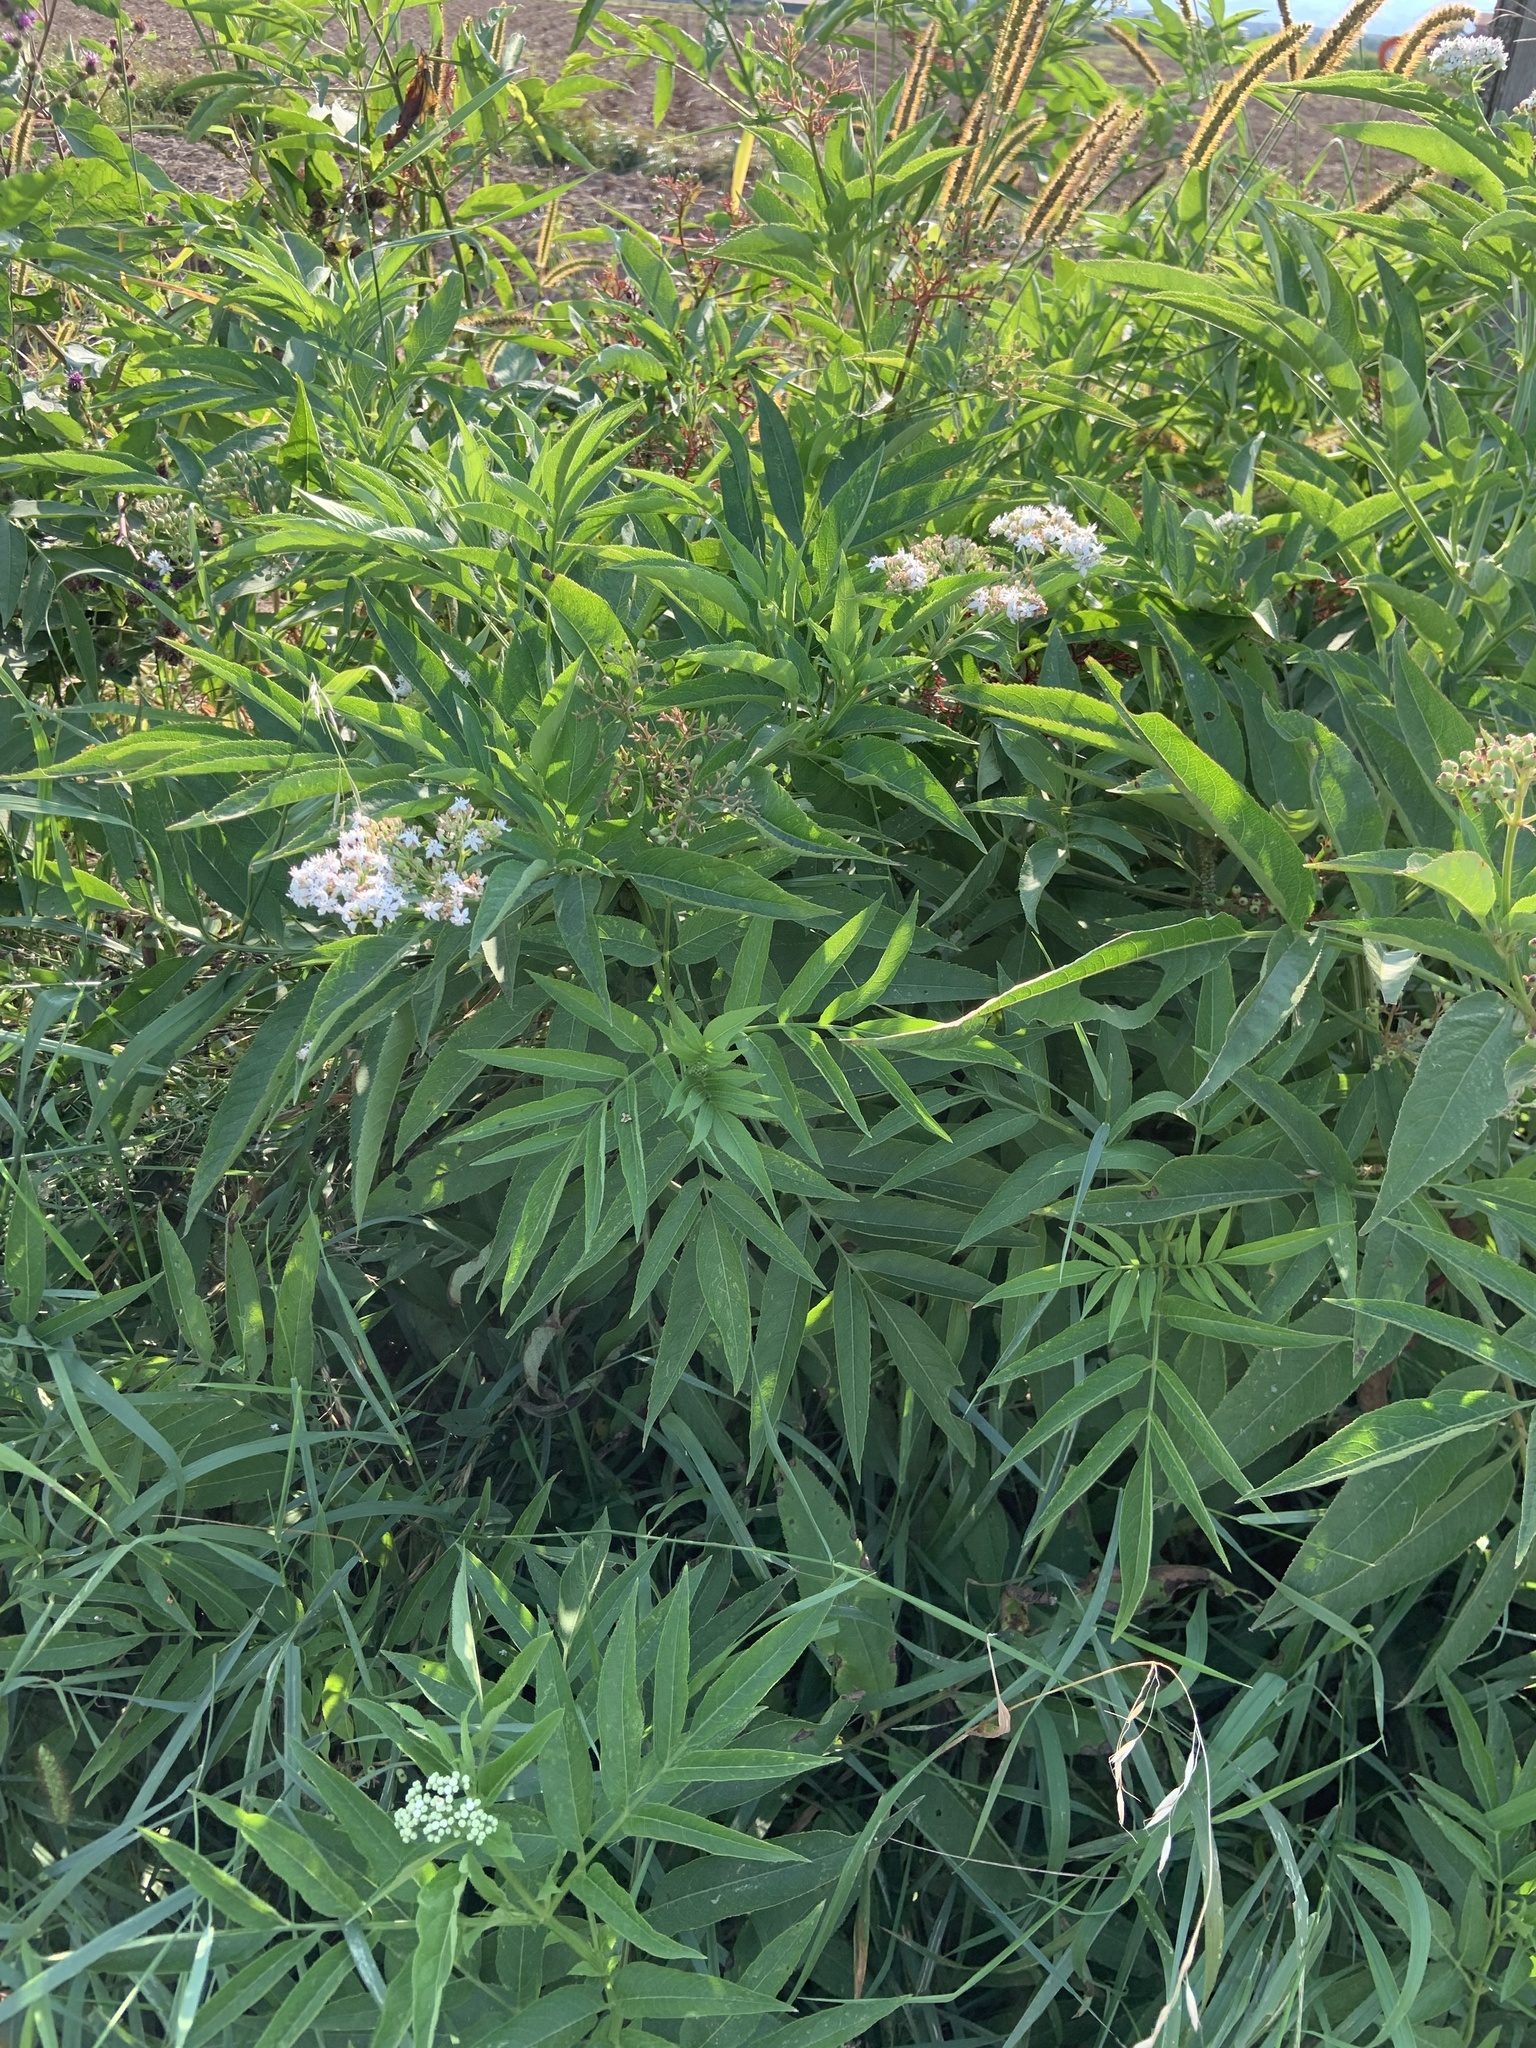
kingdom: Plantae
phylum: Tracheophyta
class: Magnoliopsida
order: Dipsacales
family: Viburnaceae
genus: Sambucus
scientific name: Sambucus ebulus
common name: Dwarf elder
